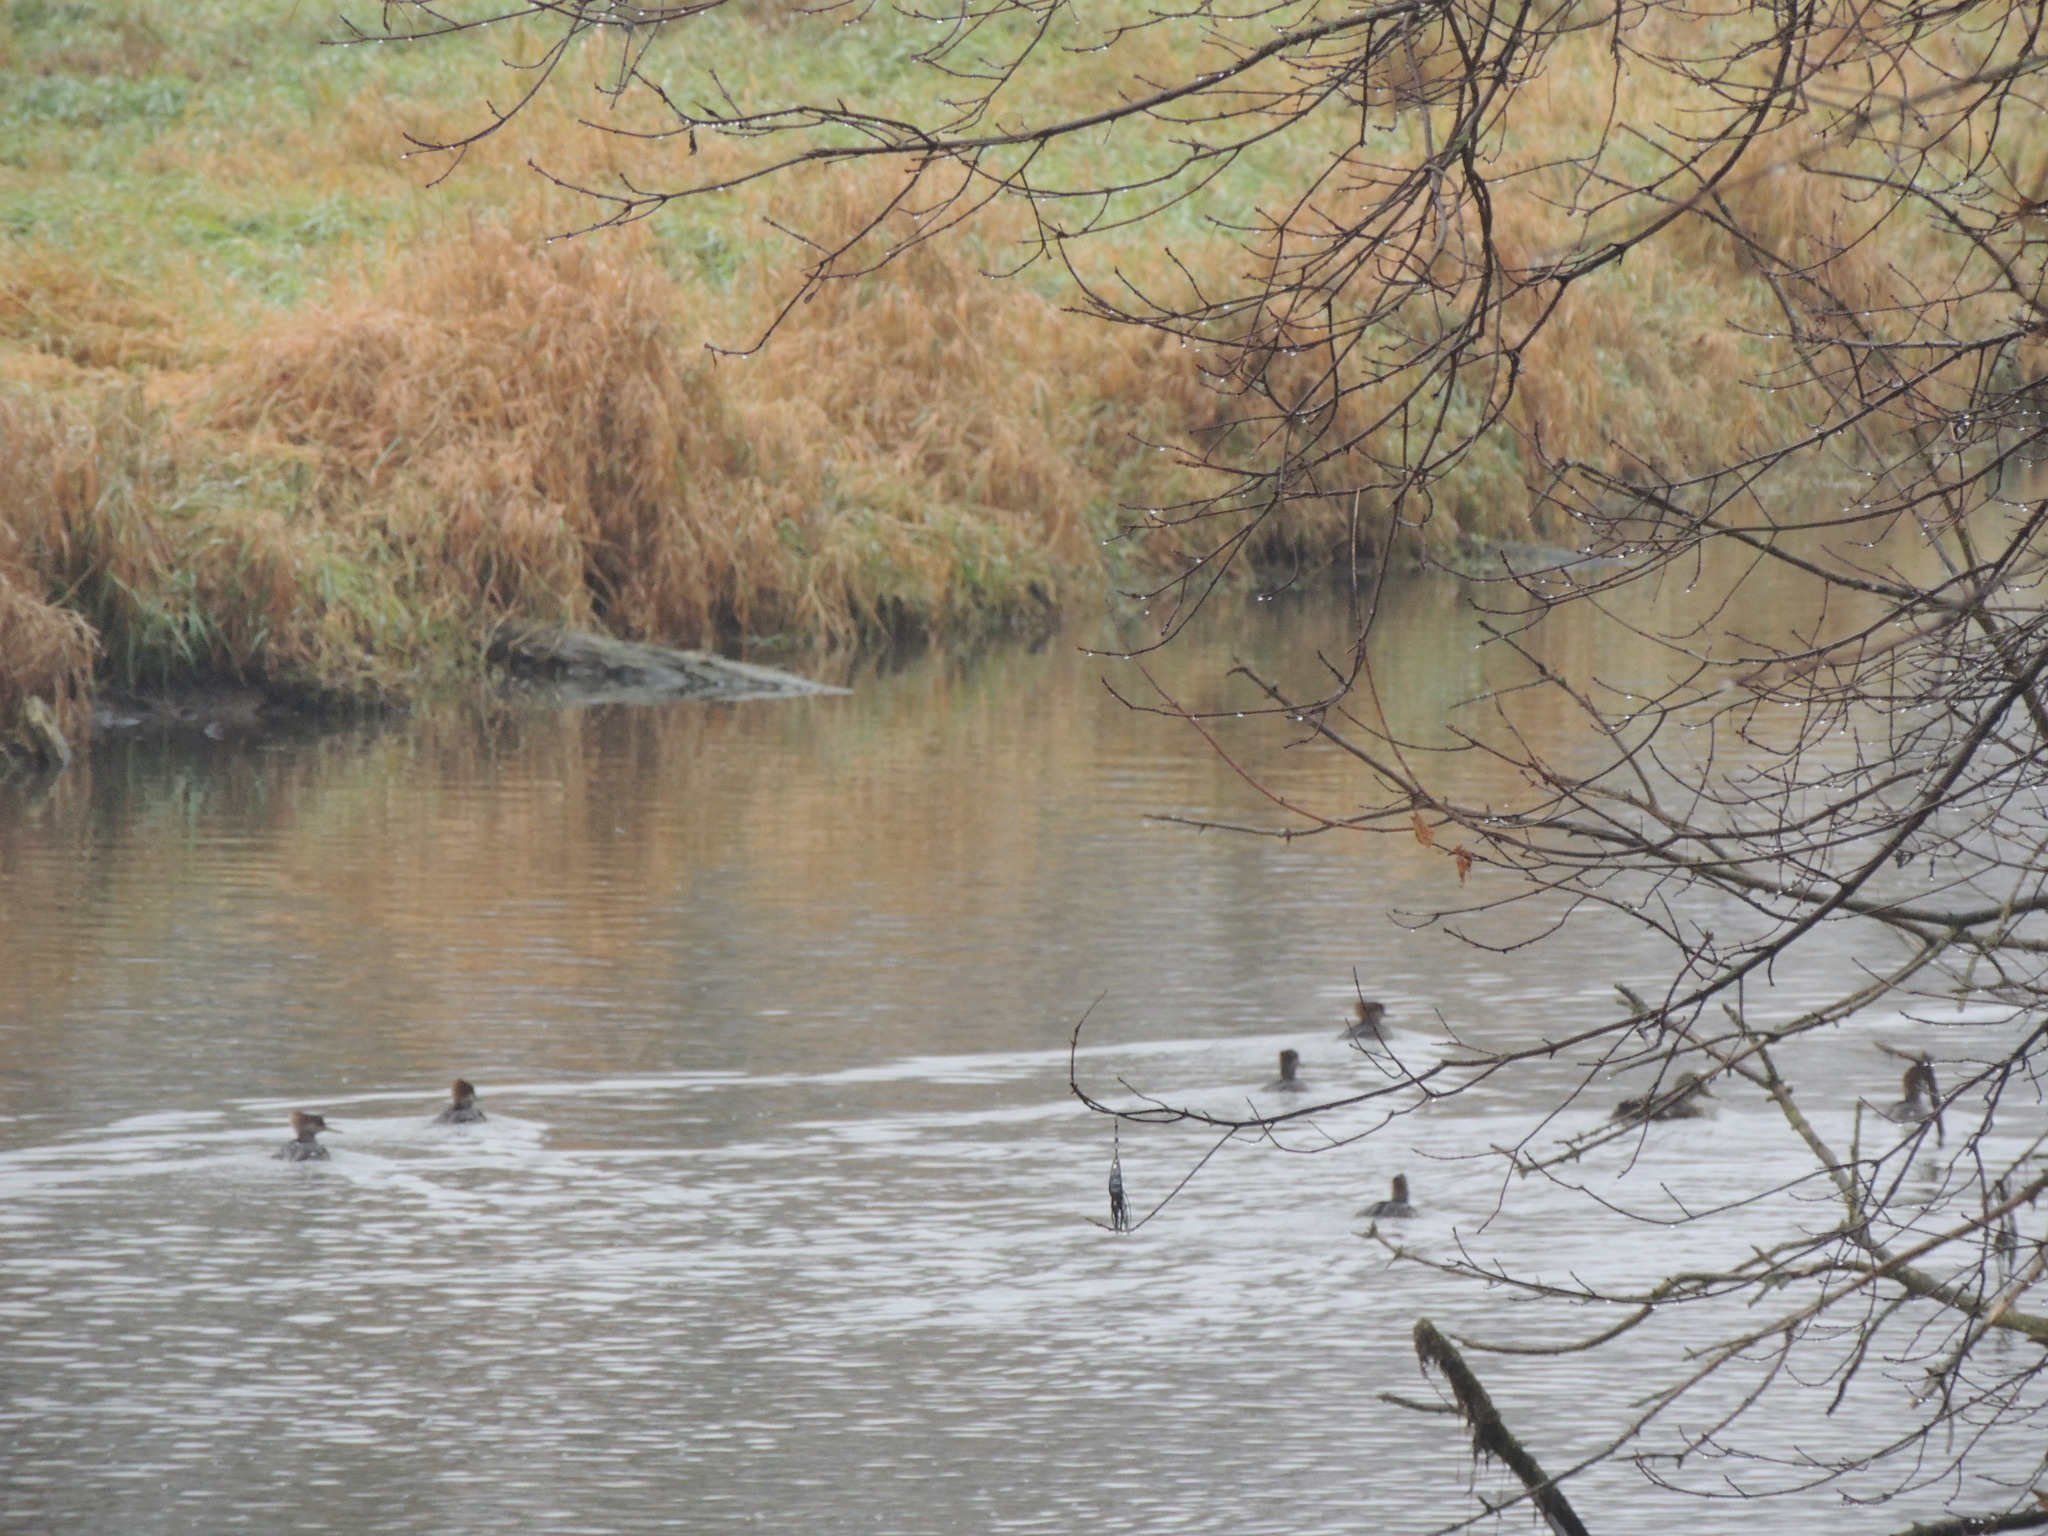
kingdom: Animalia
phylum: Chordata
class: Aves
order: Anseriformes
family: Anatidae
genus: Lophodytes
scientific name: Lophodytes cucullatus
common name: Hooded merganser
